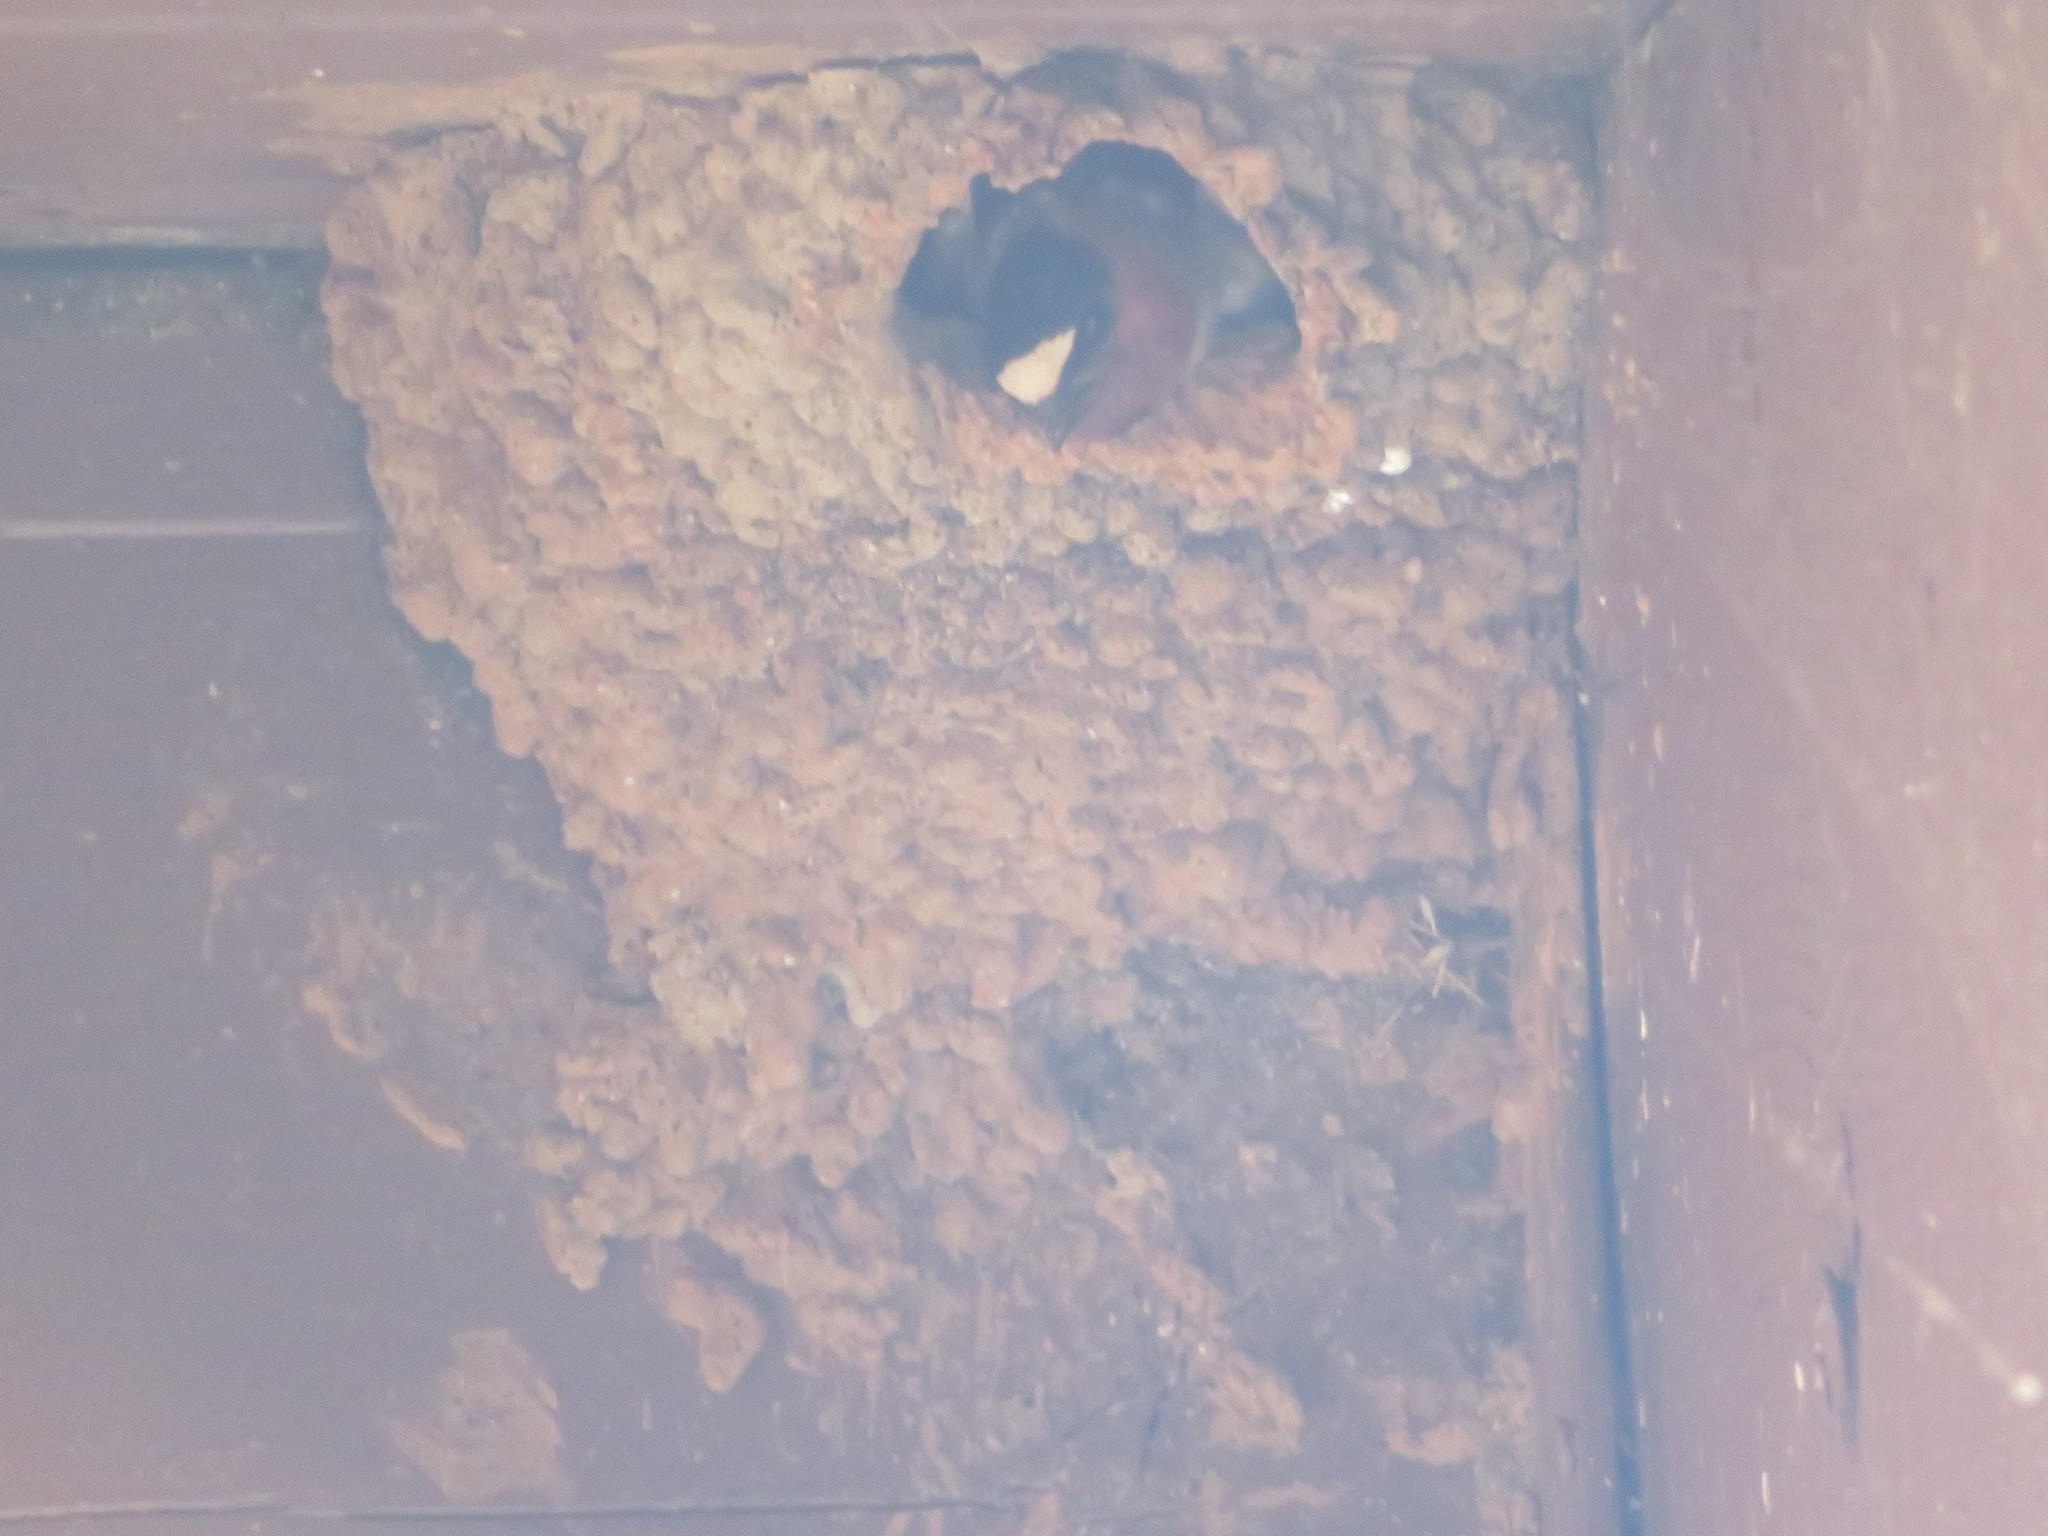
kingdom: Animalia
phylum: Chordata
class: Aves
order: Passeriformes
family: Hirundinidae
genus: Petrochelidon
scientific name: Petrochelidon pyrrhonota
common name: American cliff swallow
